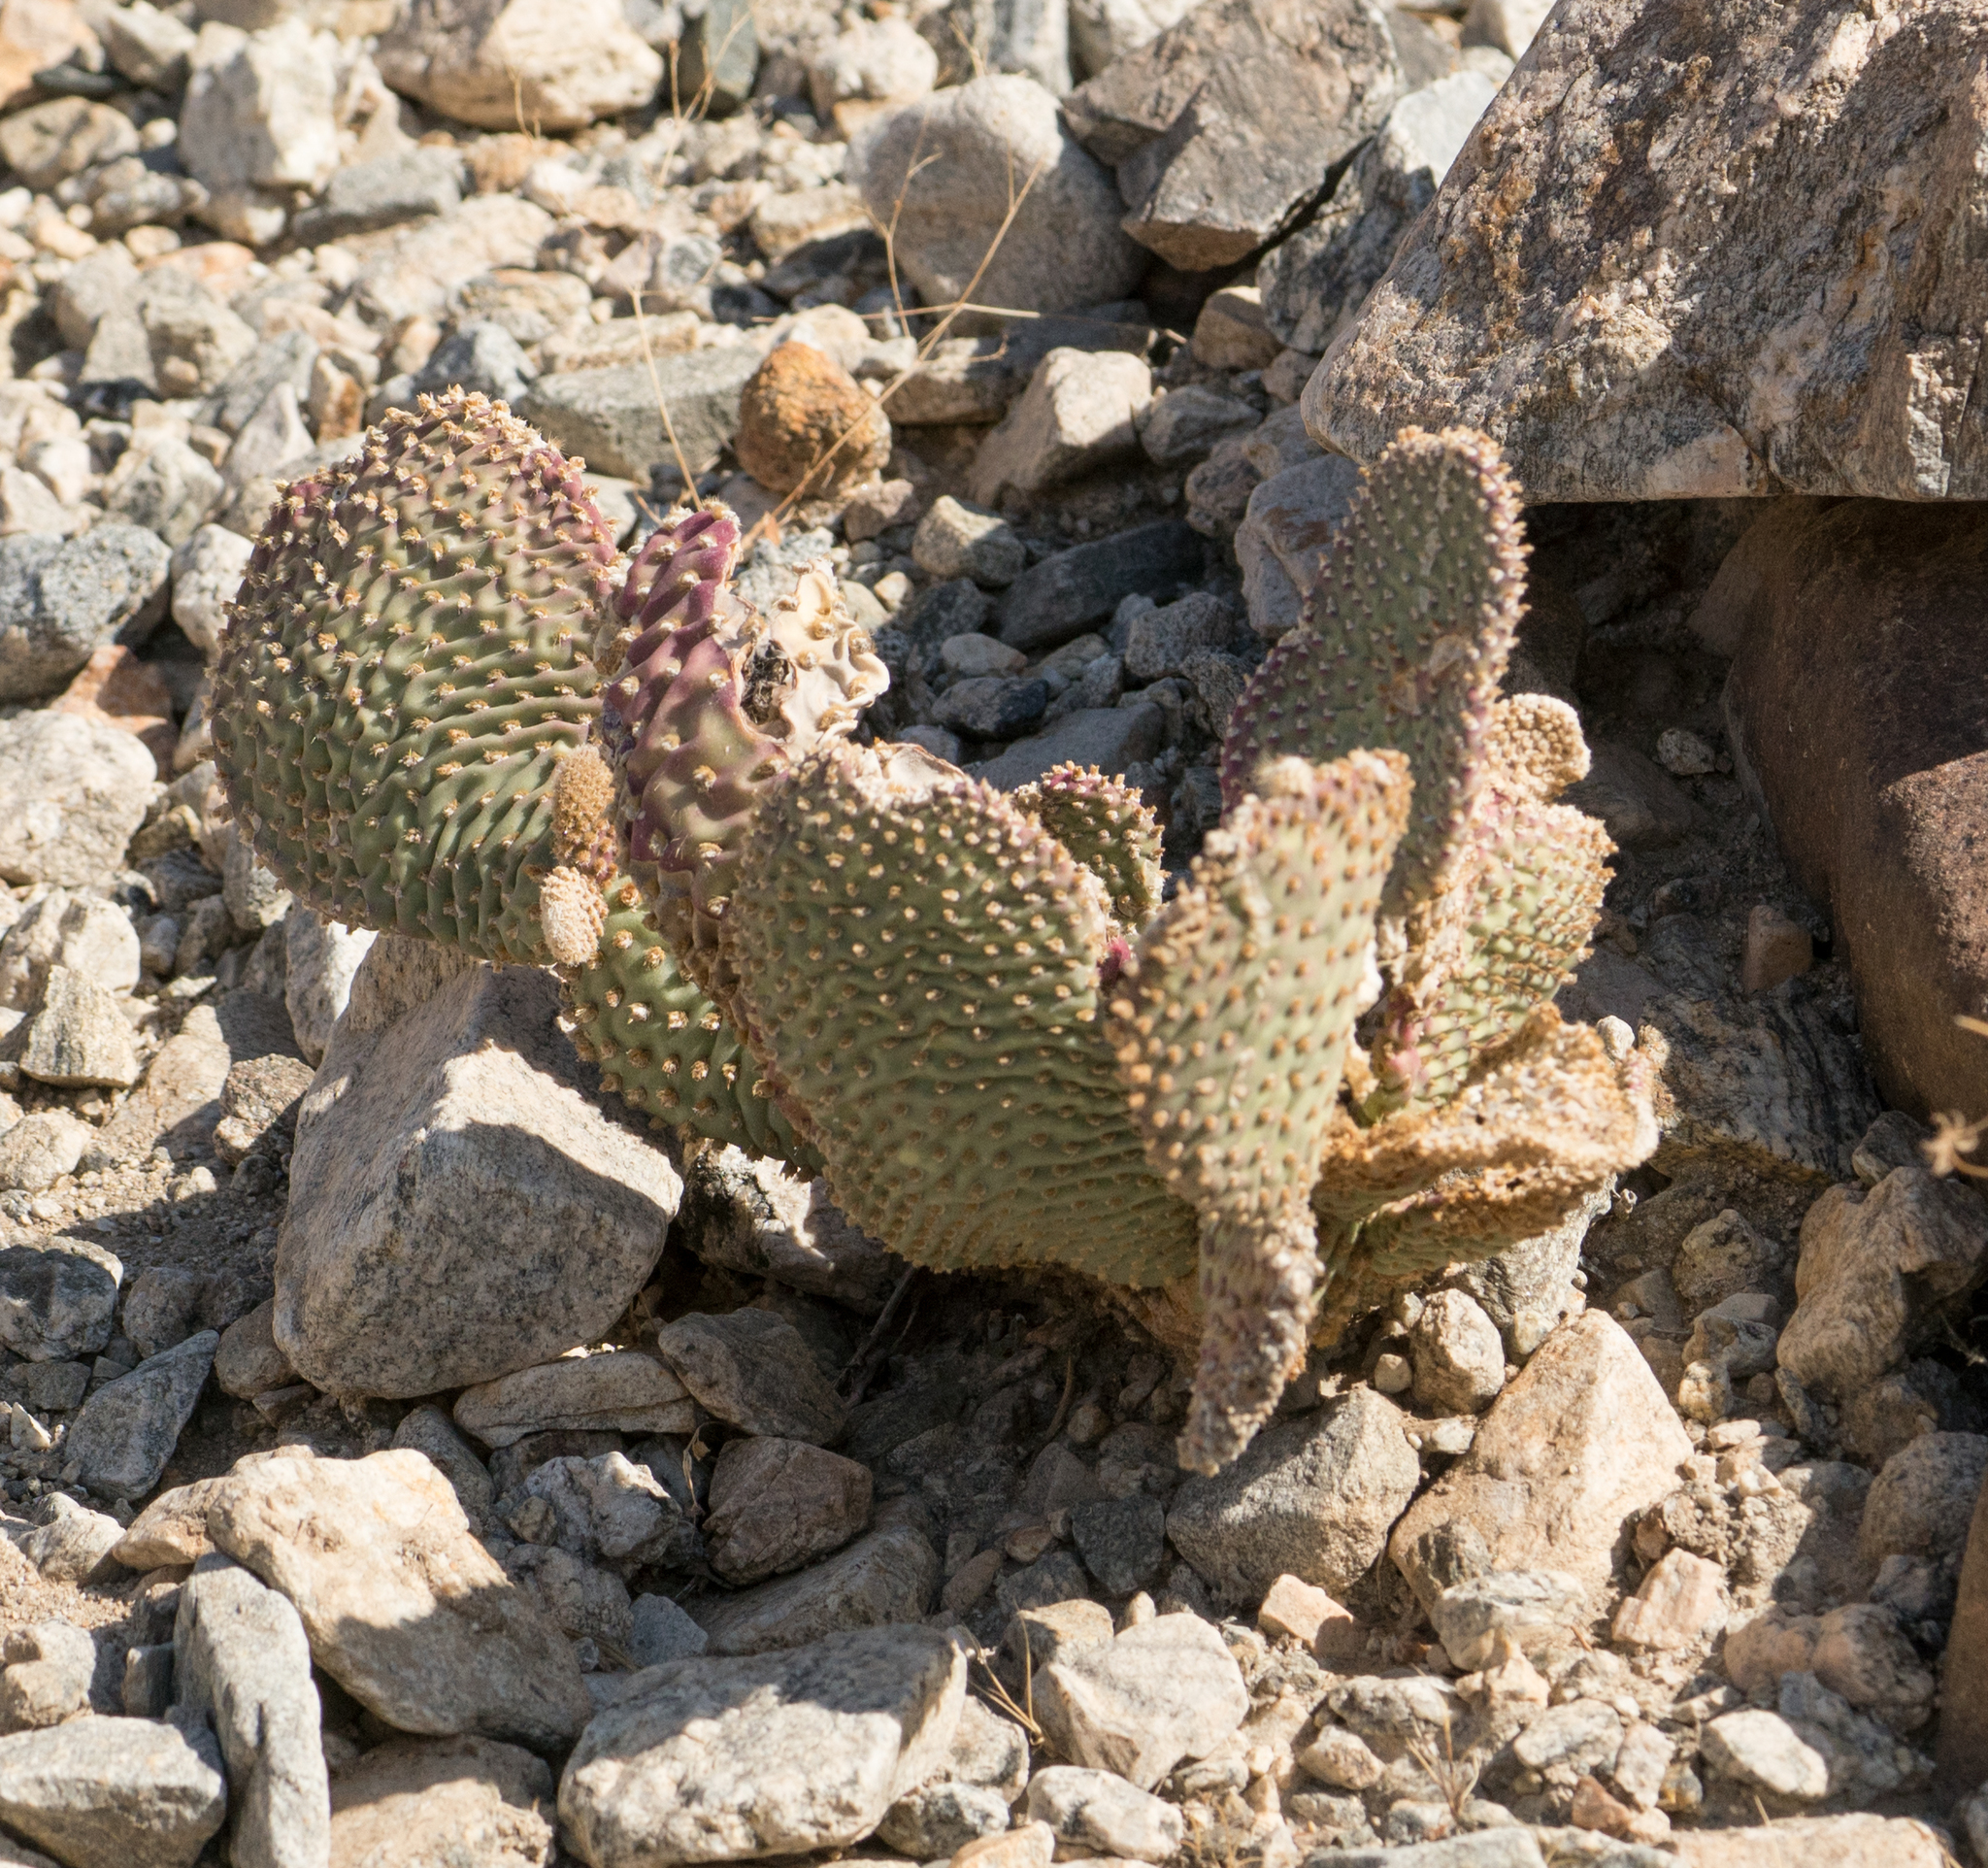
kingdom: Plantae
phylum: Tracheophyta
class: Magnoliopsida
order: Caryophyllales
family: Cactaceae
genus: Opuntia
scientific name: Opuntia basilaris
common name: Beavertail prickly-pear
